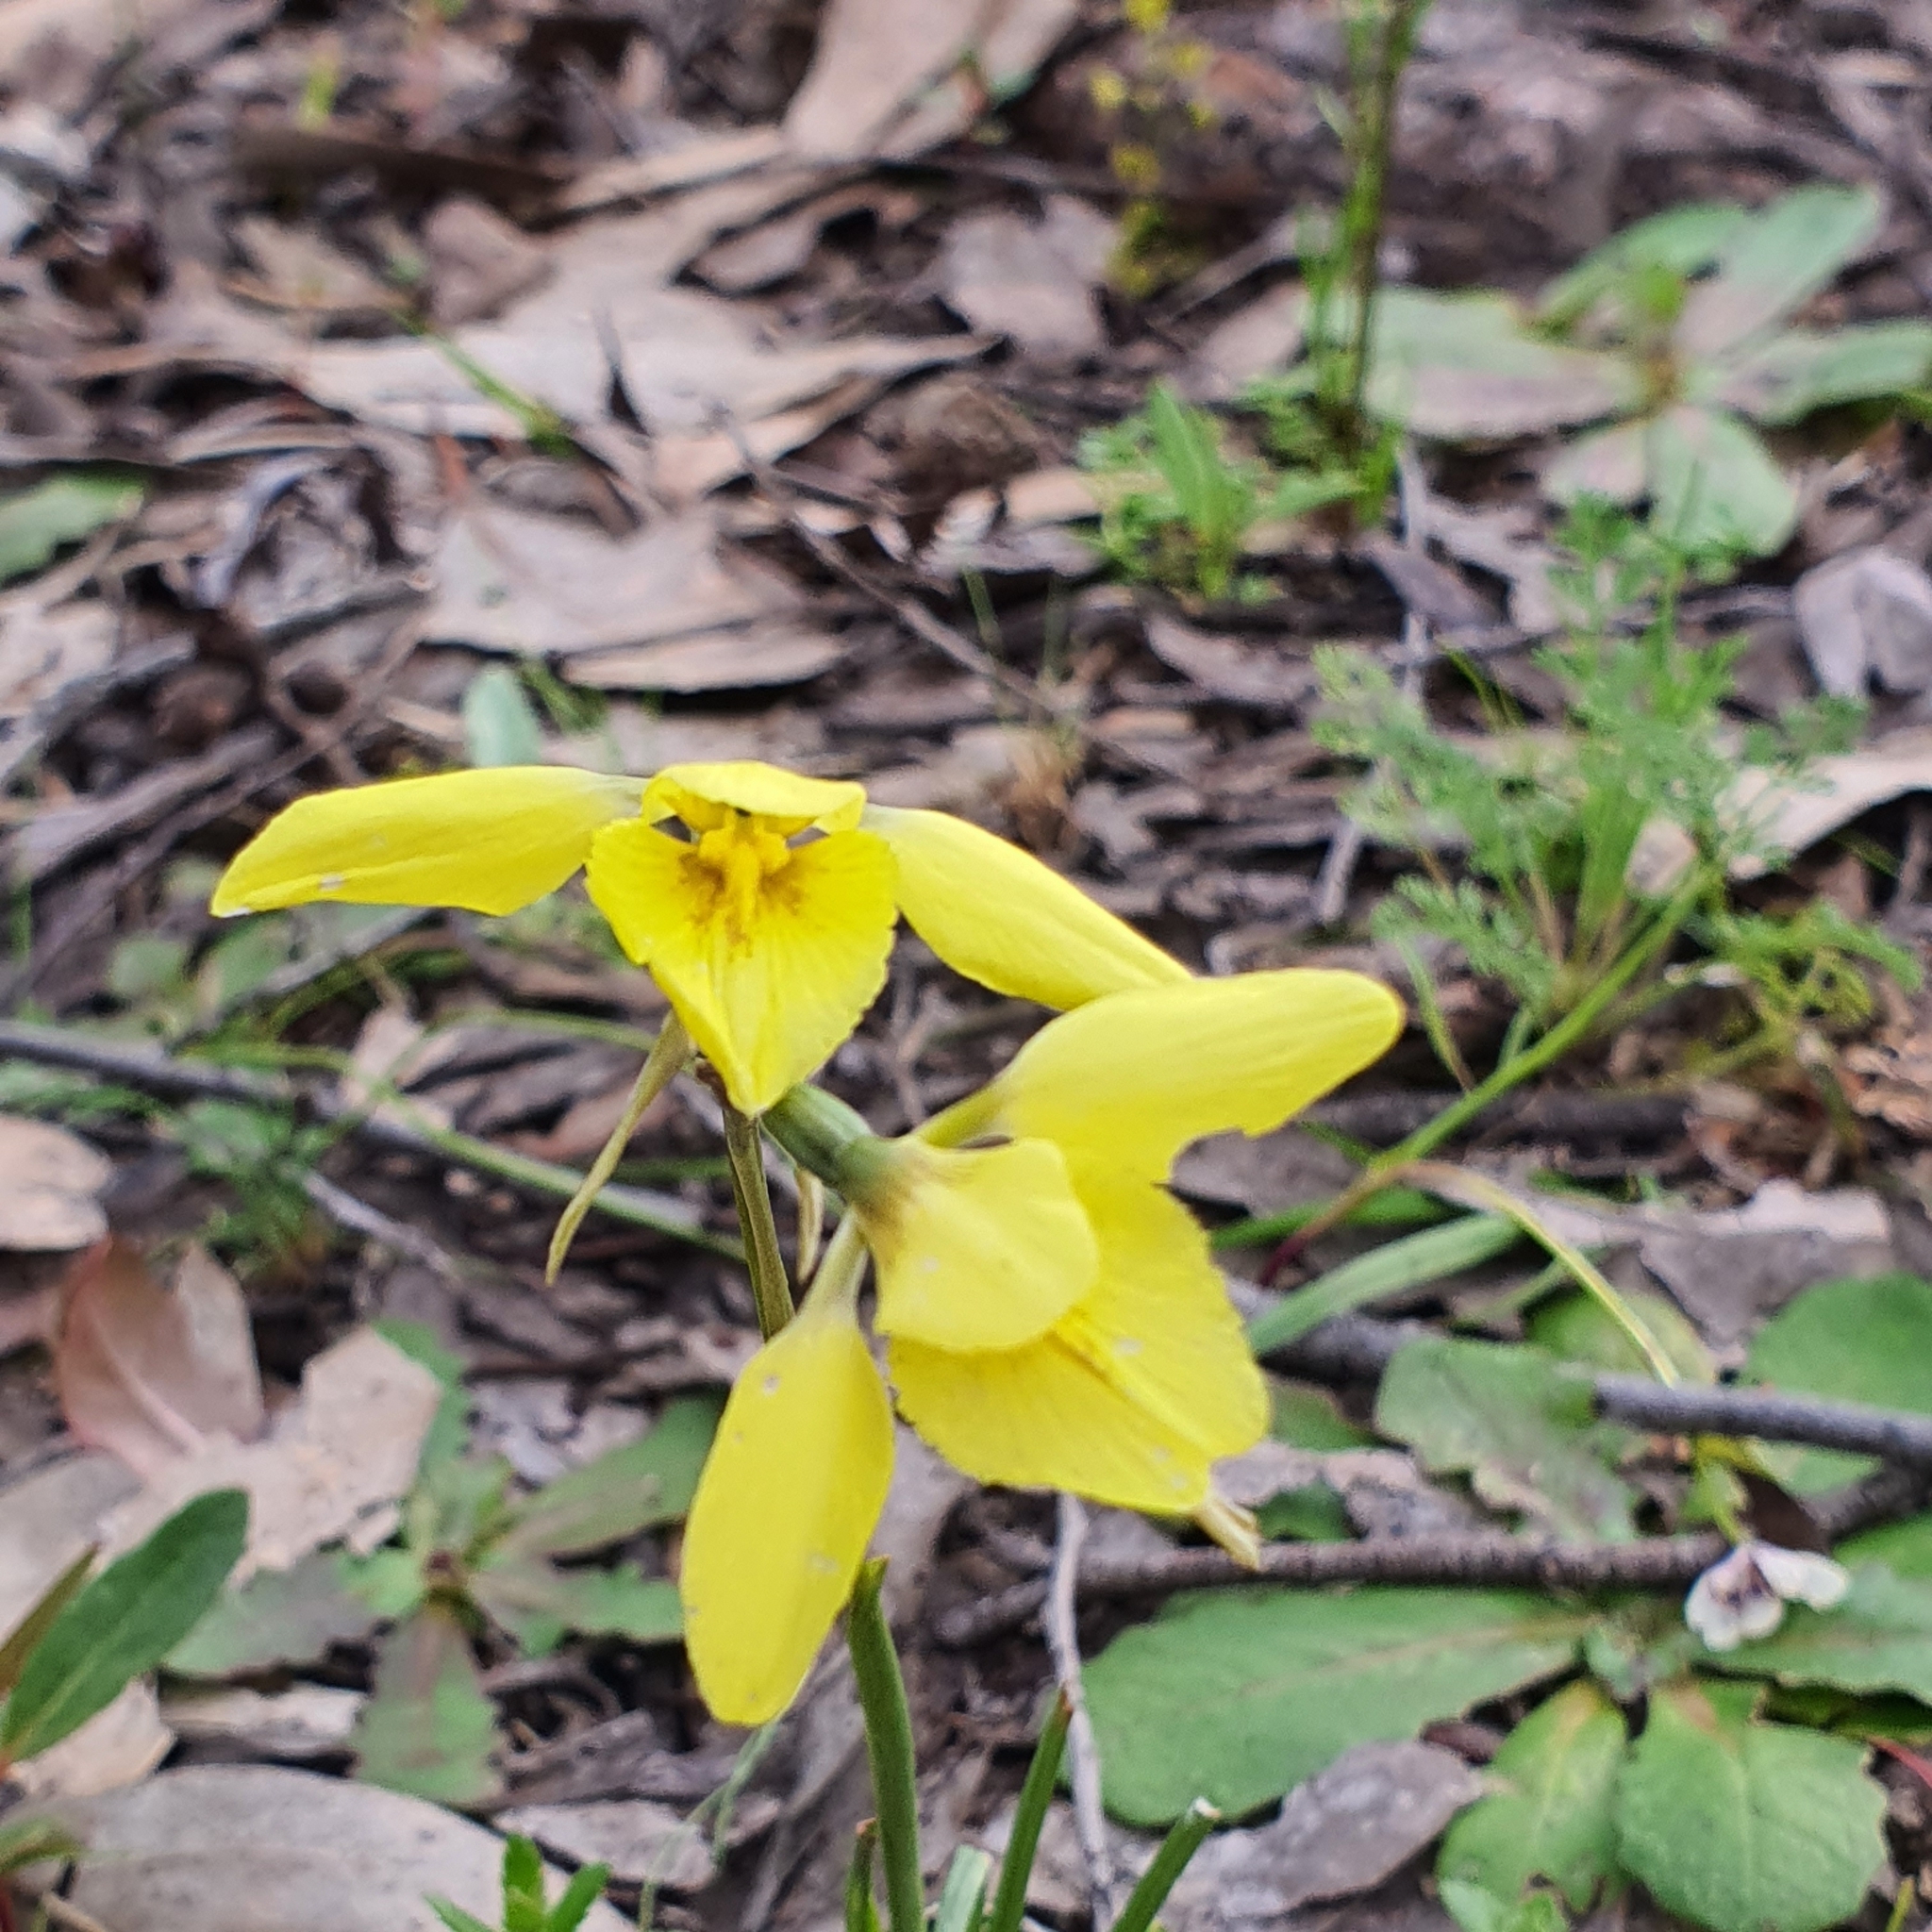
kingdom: Plantae
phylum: Tracheophyta
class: Liliopsida
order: Asparagales
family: Orchidaceae
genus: Diuris
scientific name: Diuris chryseopsis
